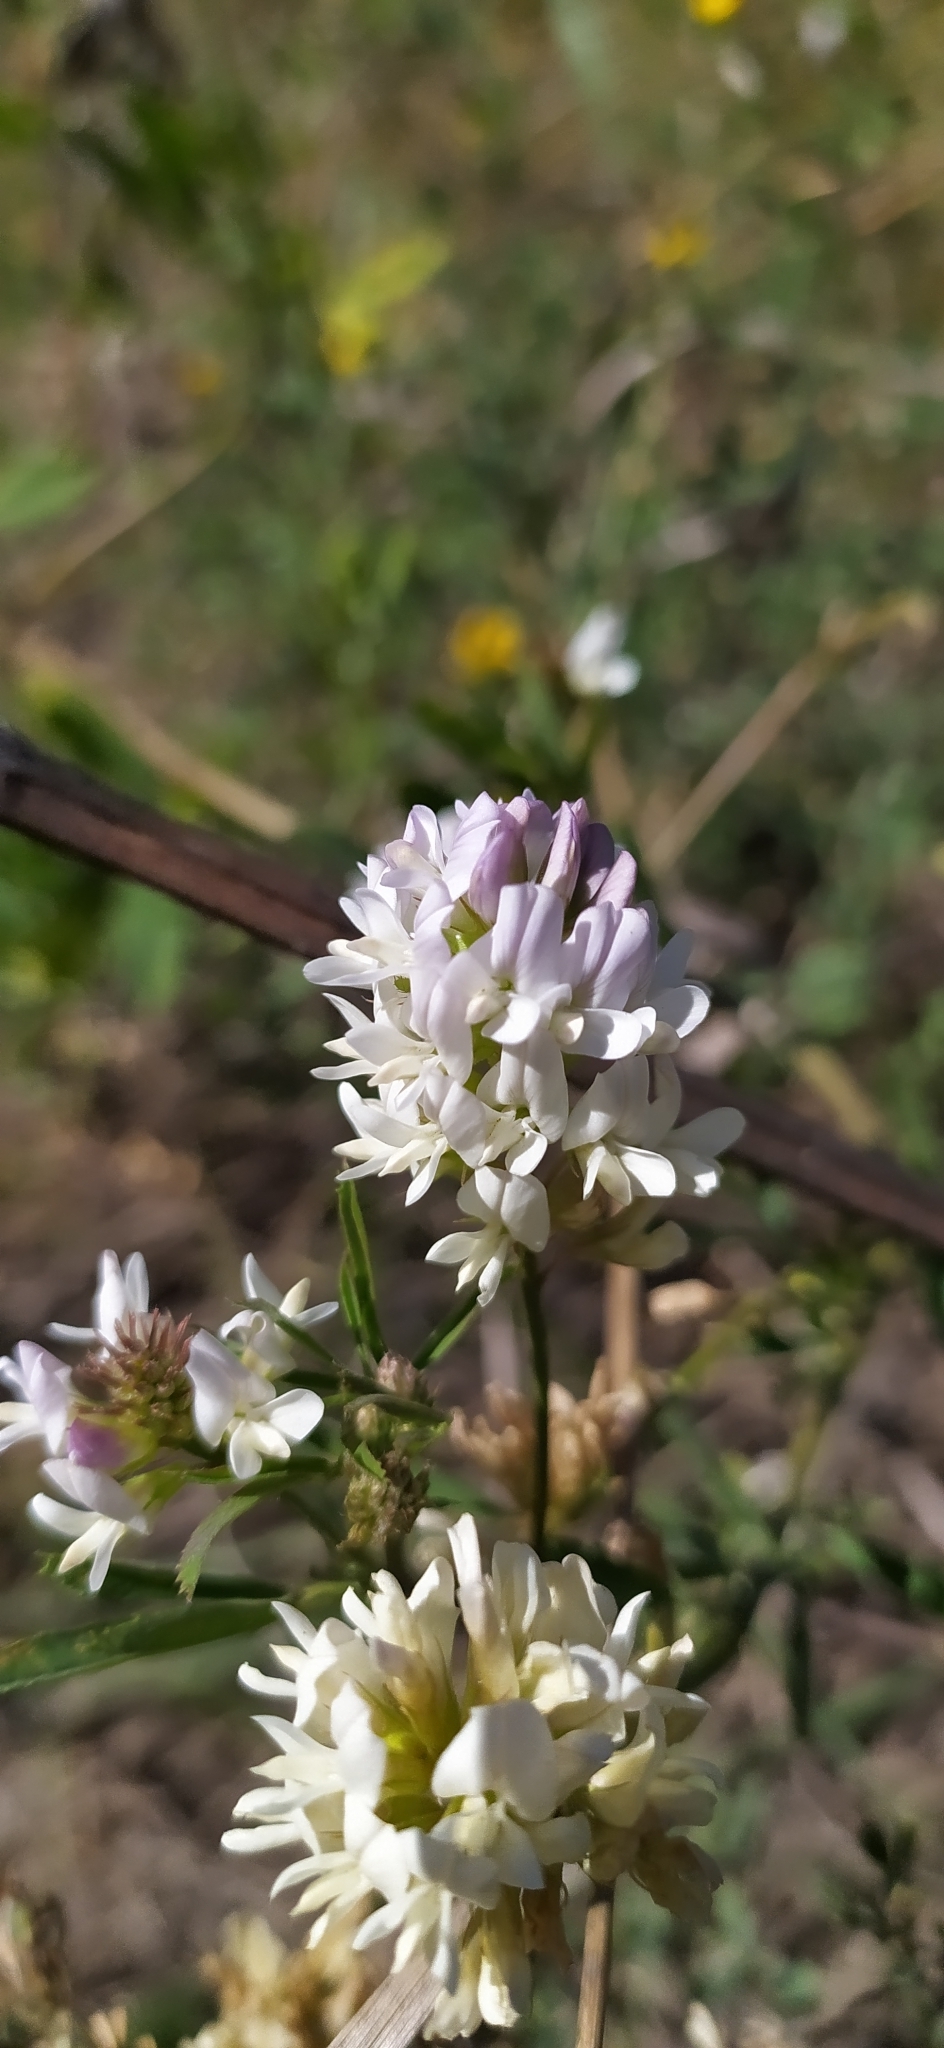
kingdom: Plantae
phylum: Tracheophyta
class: Magnoliopsida
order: Fabales
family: Fabaceae
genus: Medicago
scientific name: Medicago varia
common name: Sand lucerne
